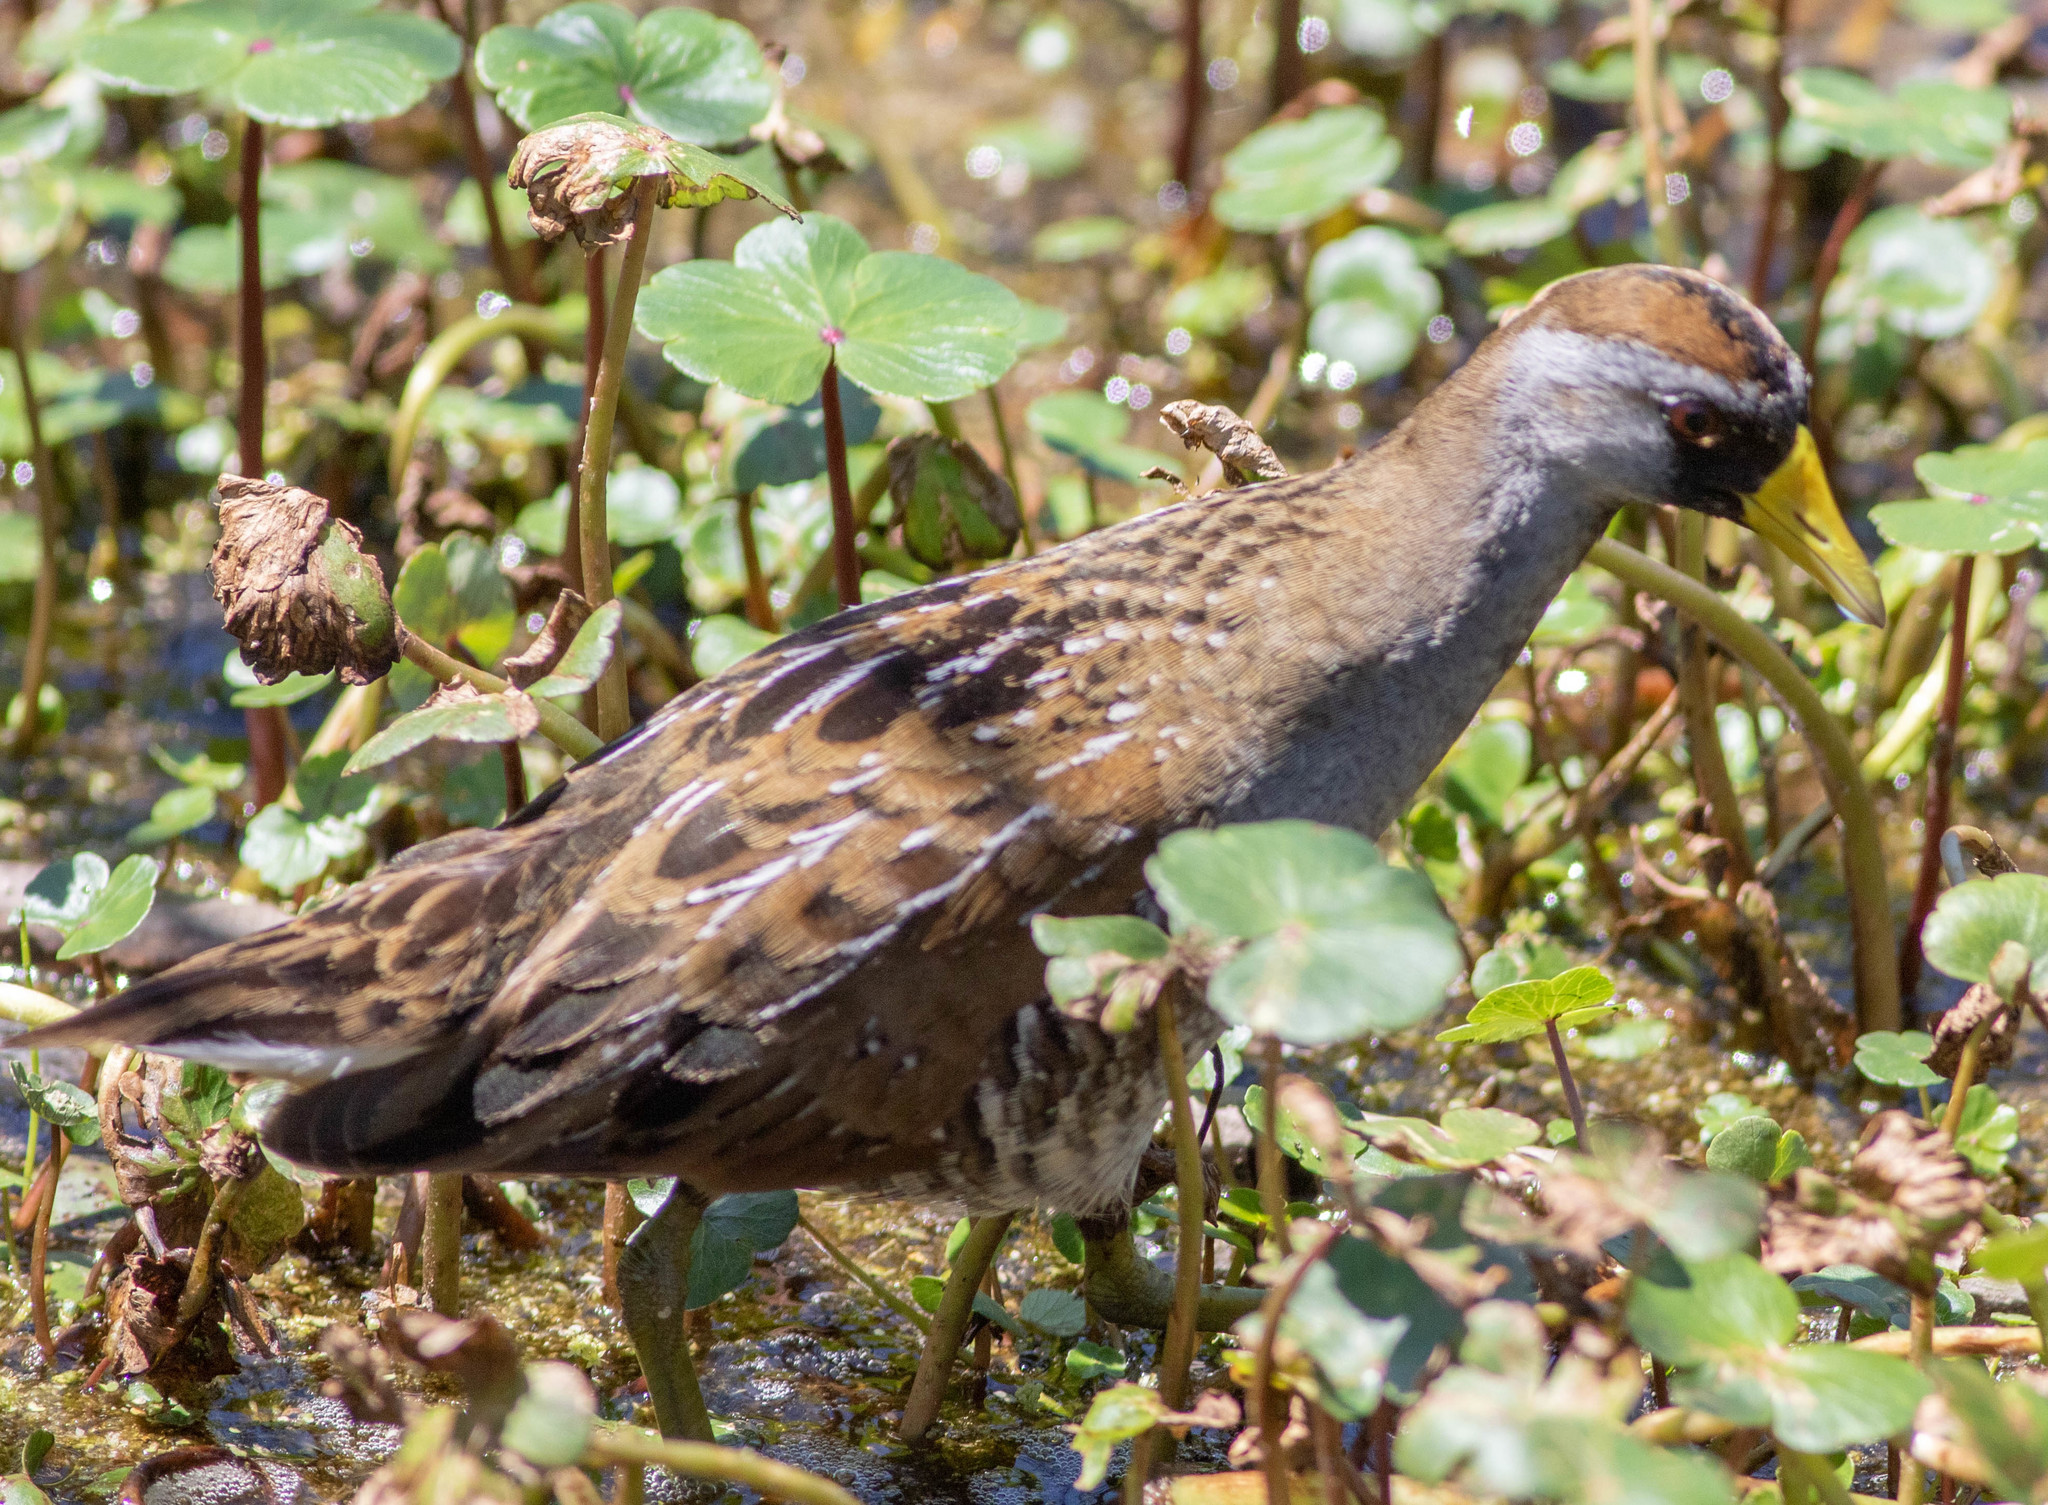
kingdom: Animalia
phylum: Chordata
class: Aves
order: Gruiformes
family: Rallidae
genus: Porzana
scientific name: Porzana carolina
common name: Sora
